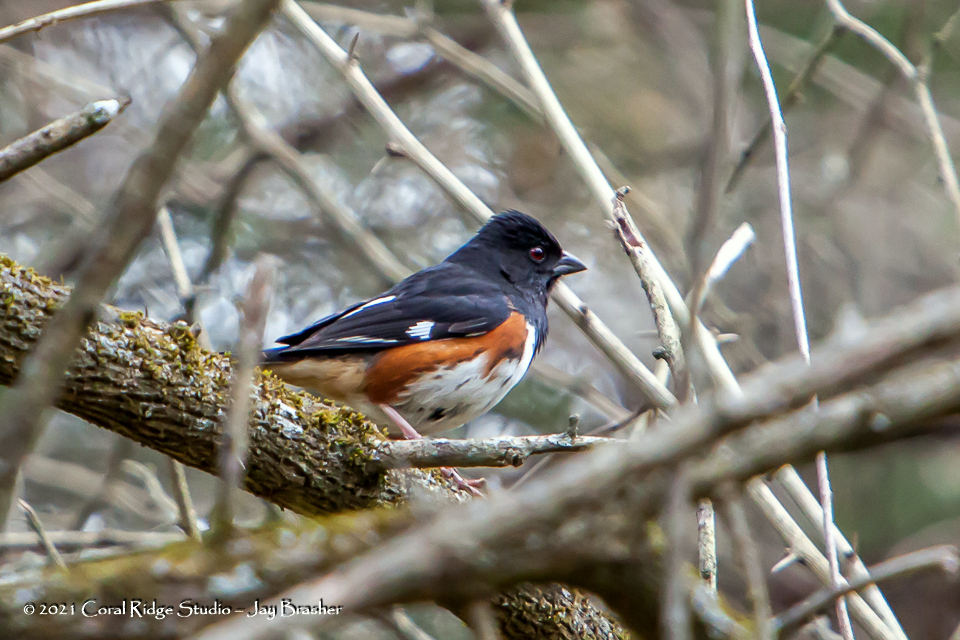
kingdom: Animalia
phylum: Chordata
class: Aves
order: Passeriformes
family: Passerellidae
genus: Pipilo
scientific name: Pipilo erythrophthalmus
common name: Eastern towhee
